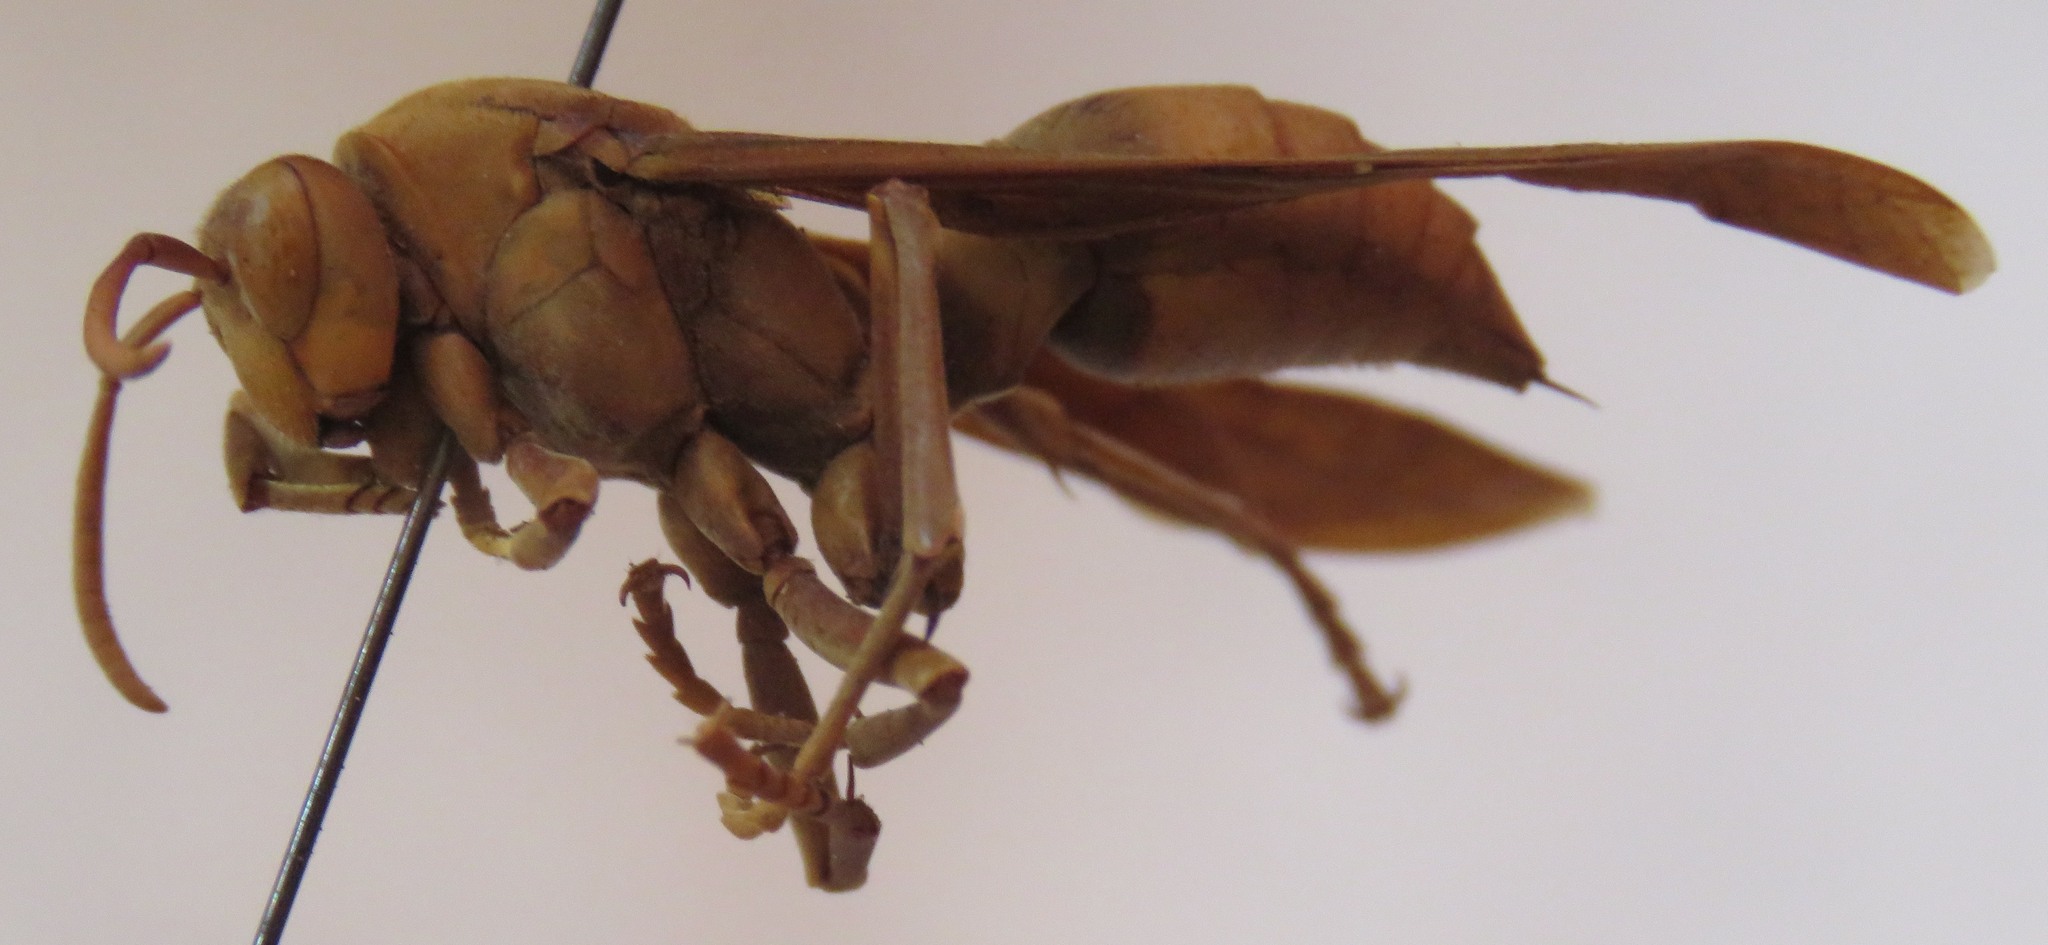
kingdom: Animalia
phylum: Arthropoda
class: Insecta
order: Hymenoptera
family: Eumenidae
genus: Polistes
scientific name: Polistes carnifex
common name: Paper wasp
